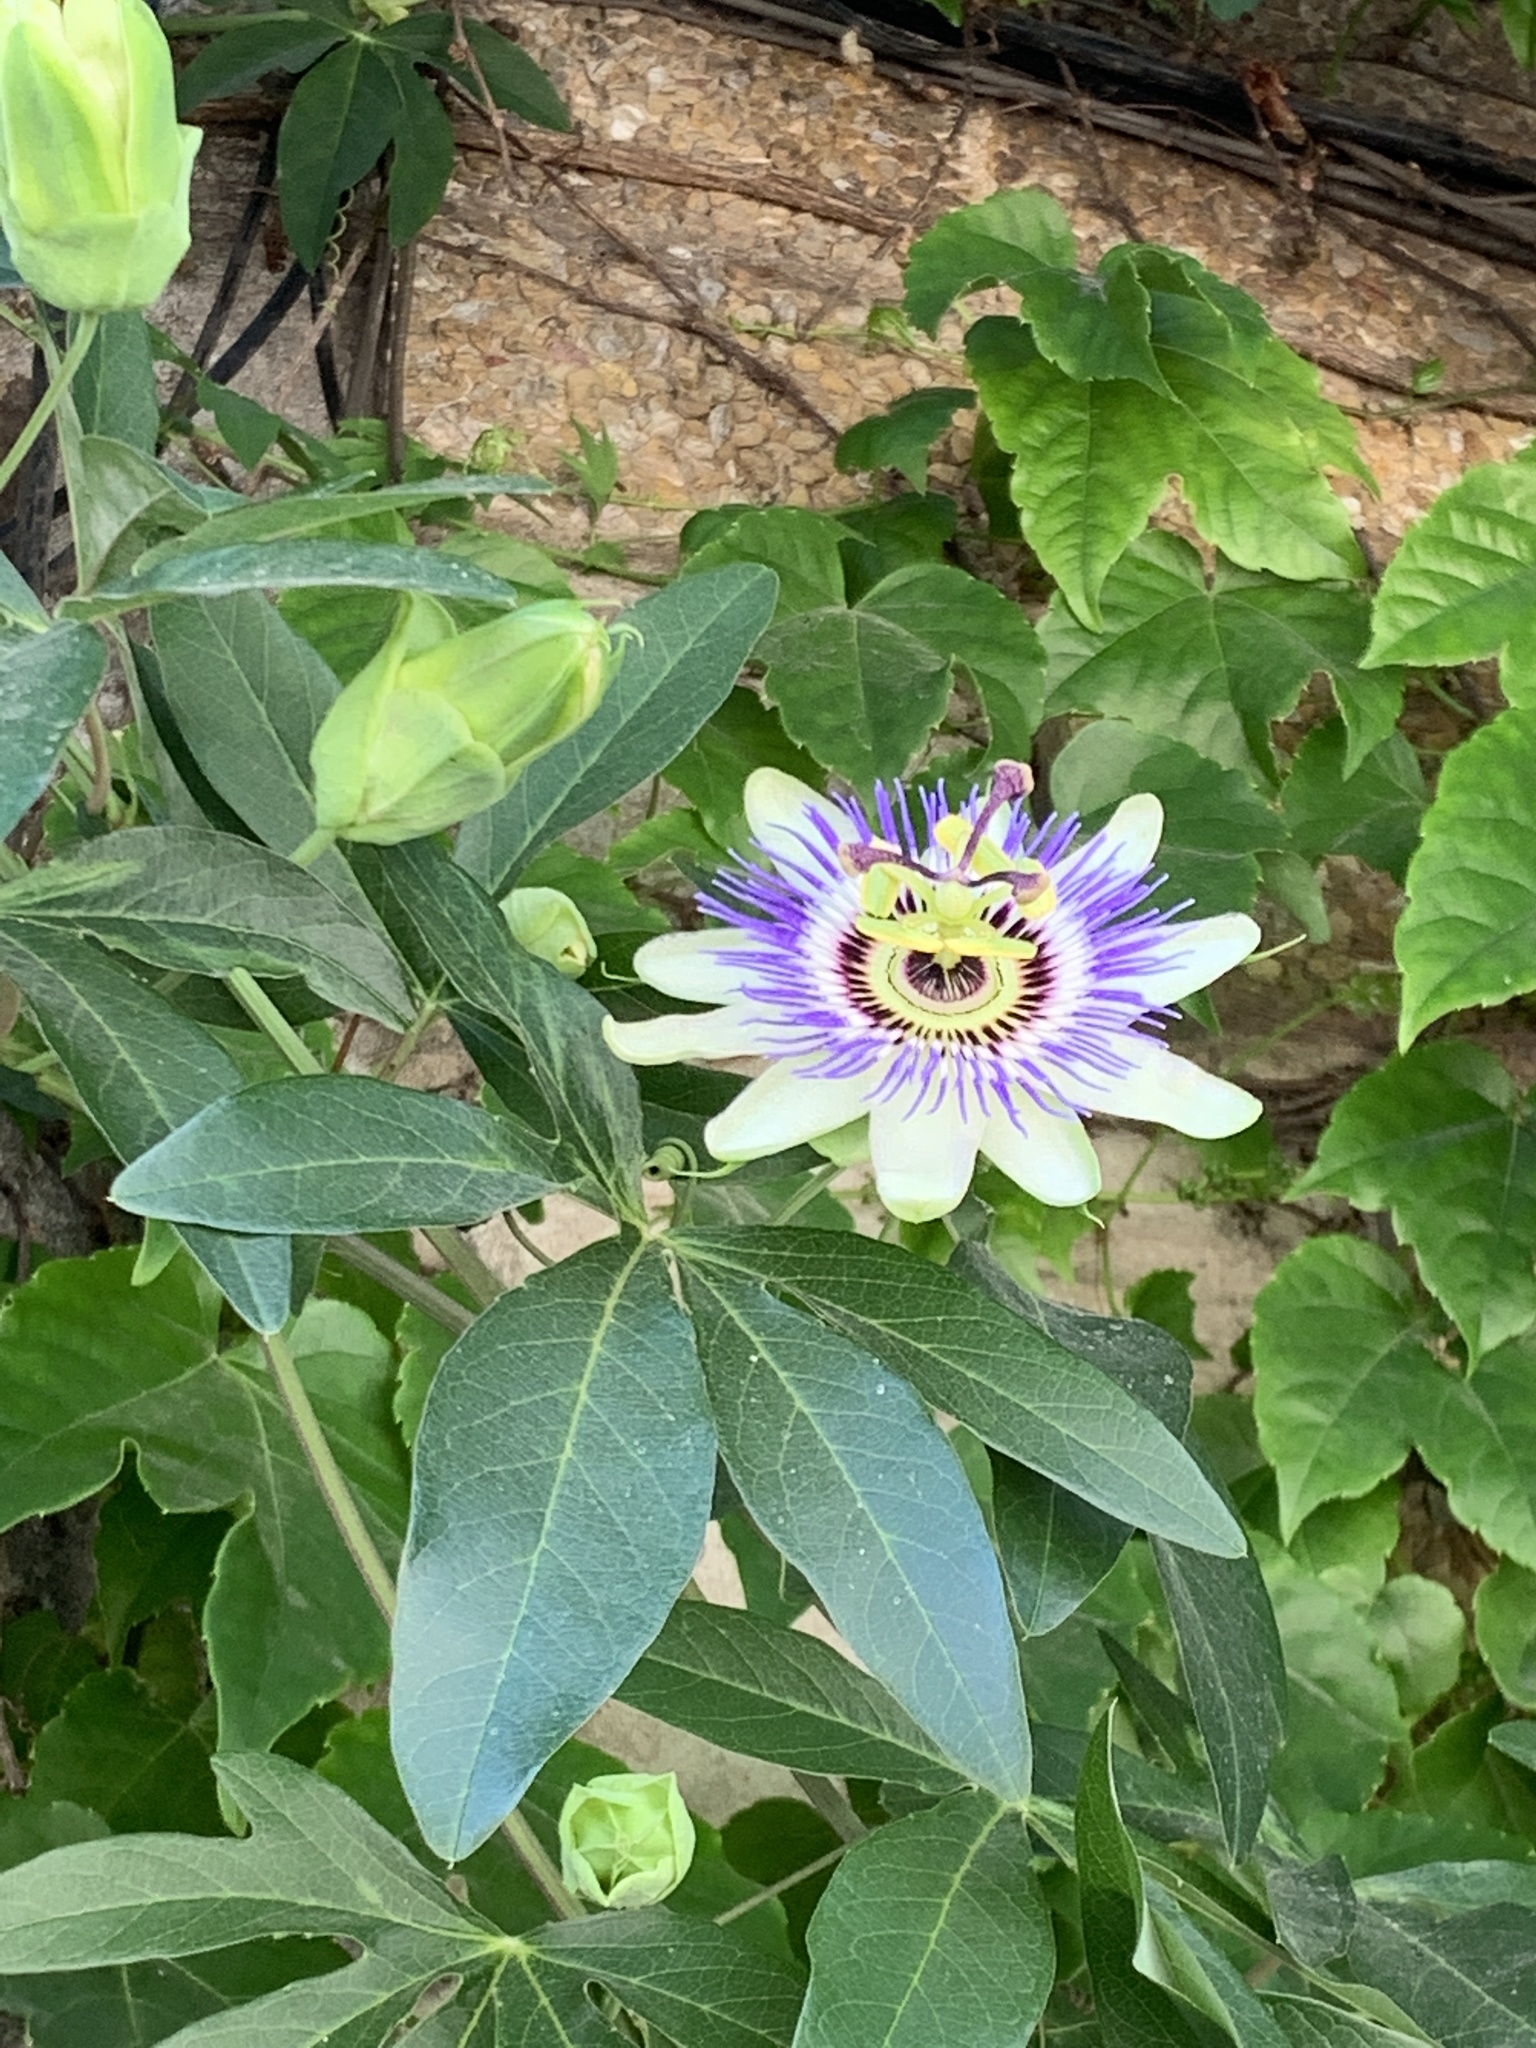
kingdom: Plantae
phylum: Tracheophyta
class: Magnoliopsida
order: Malpighiales
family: Passifloraceae
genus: Passiflora
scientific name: Passiflora caerulea
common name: Blue passionflower
